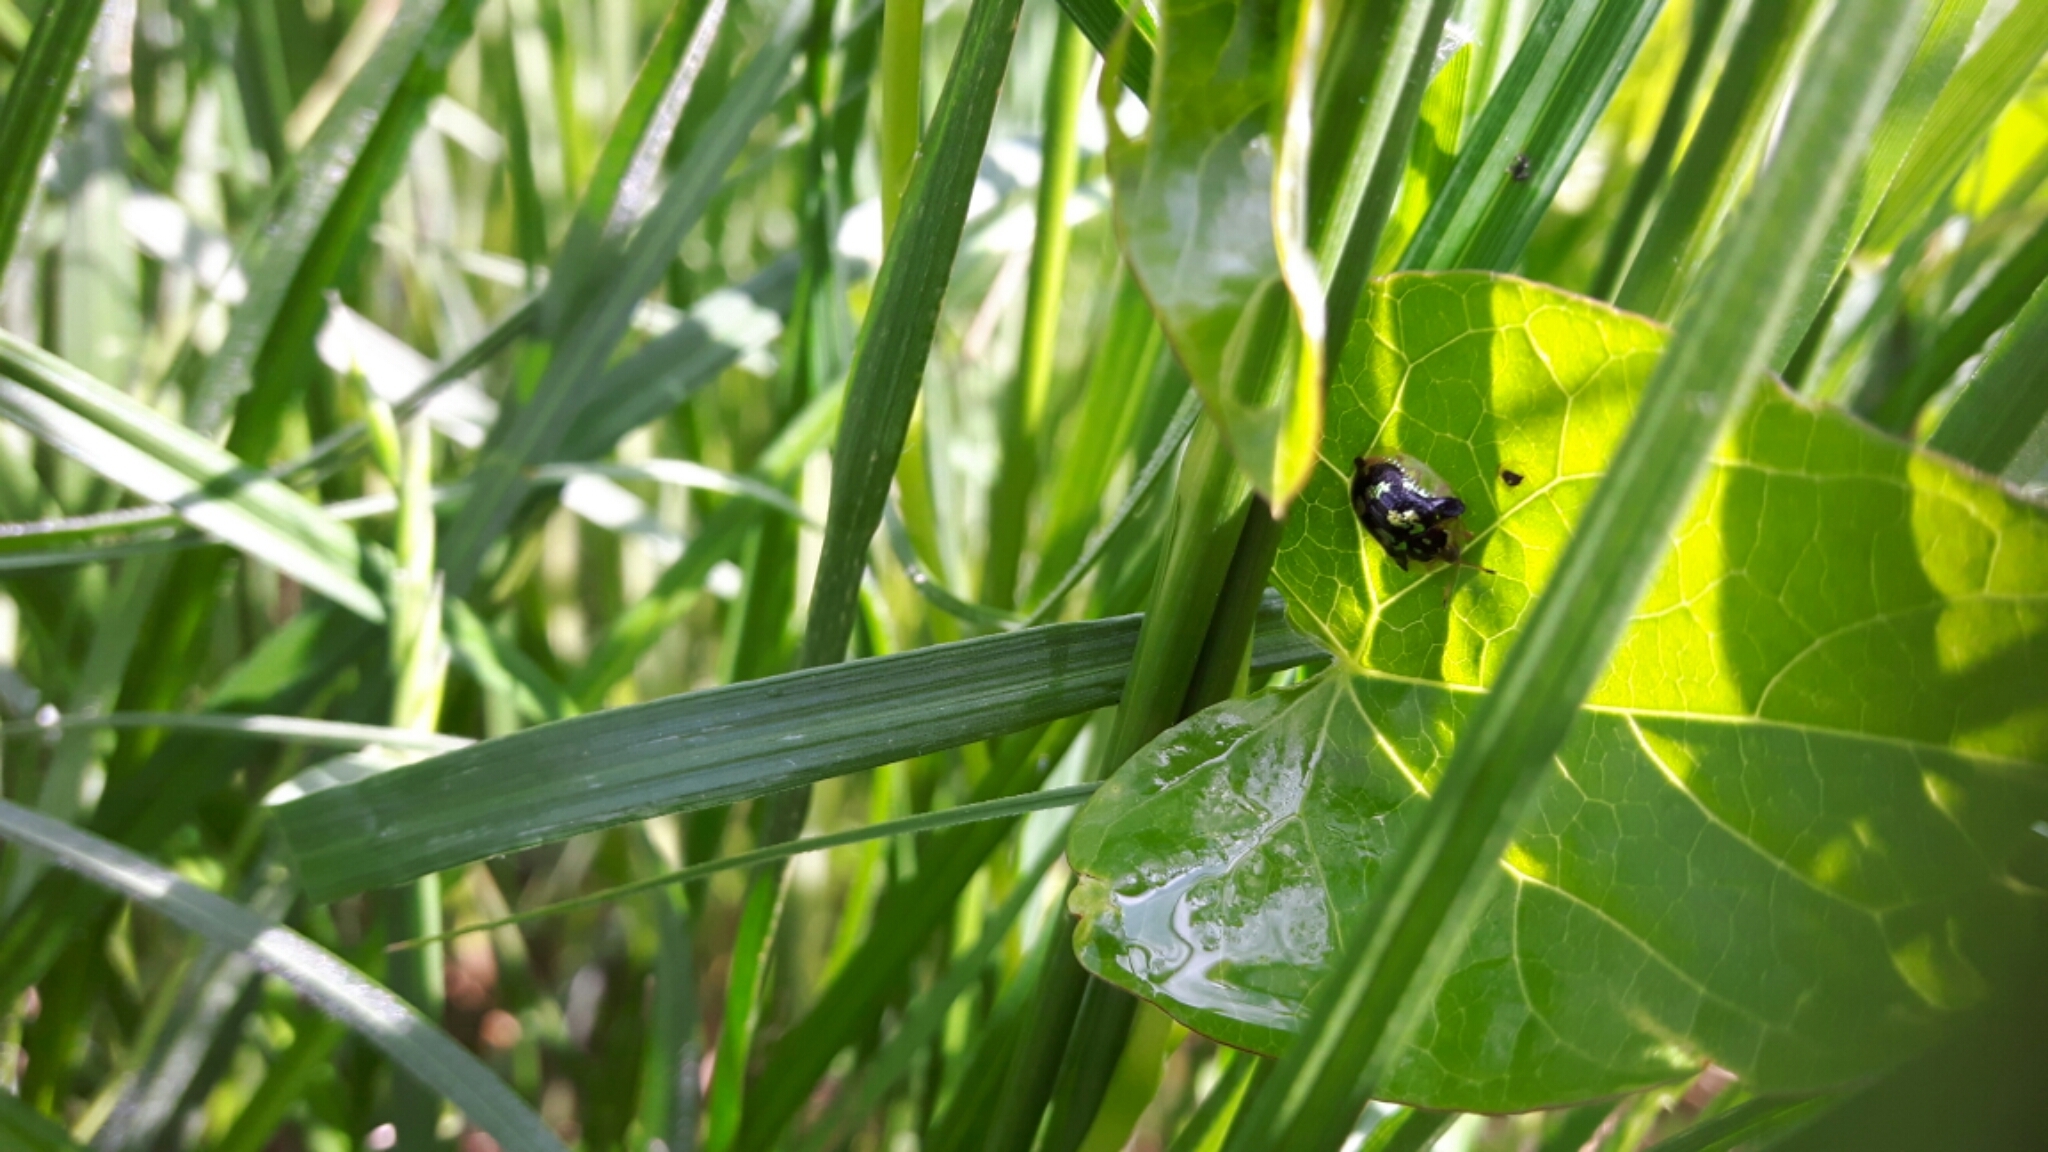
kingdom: Animalia
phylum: Arthropoda
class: Insecta
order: Coleoptera
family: Chrysomelidae
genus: Deloyala
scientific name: Deloyala guttata
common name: Mottled tortoise beetle
